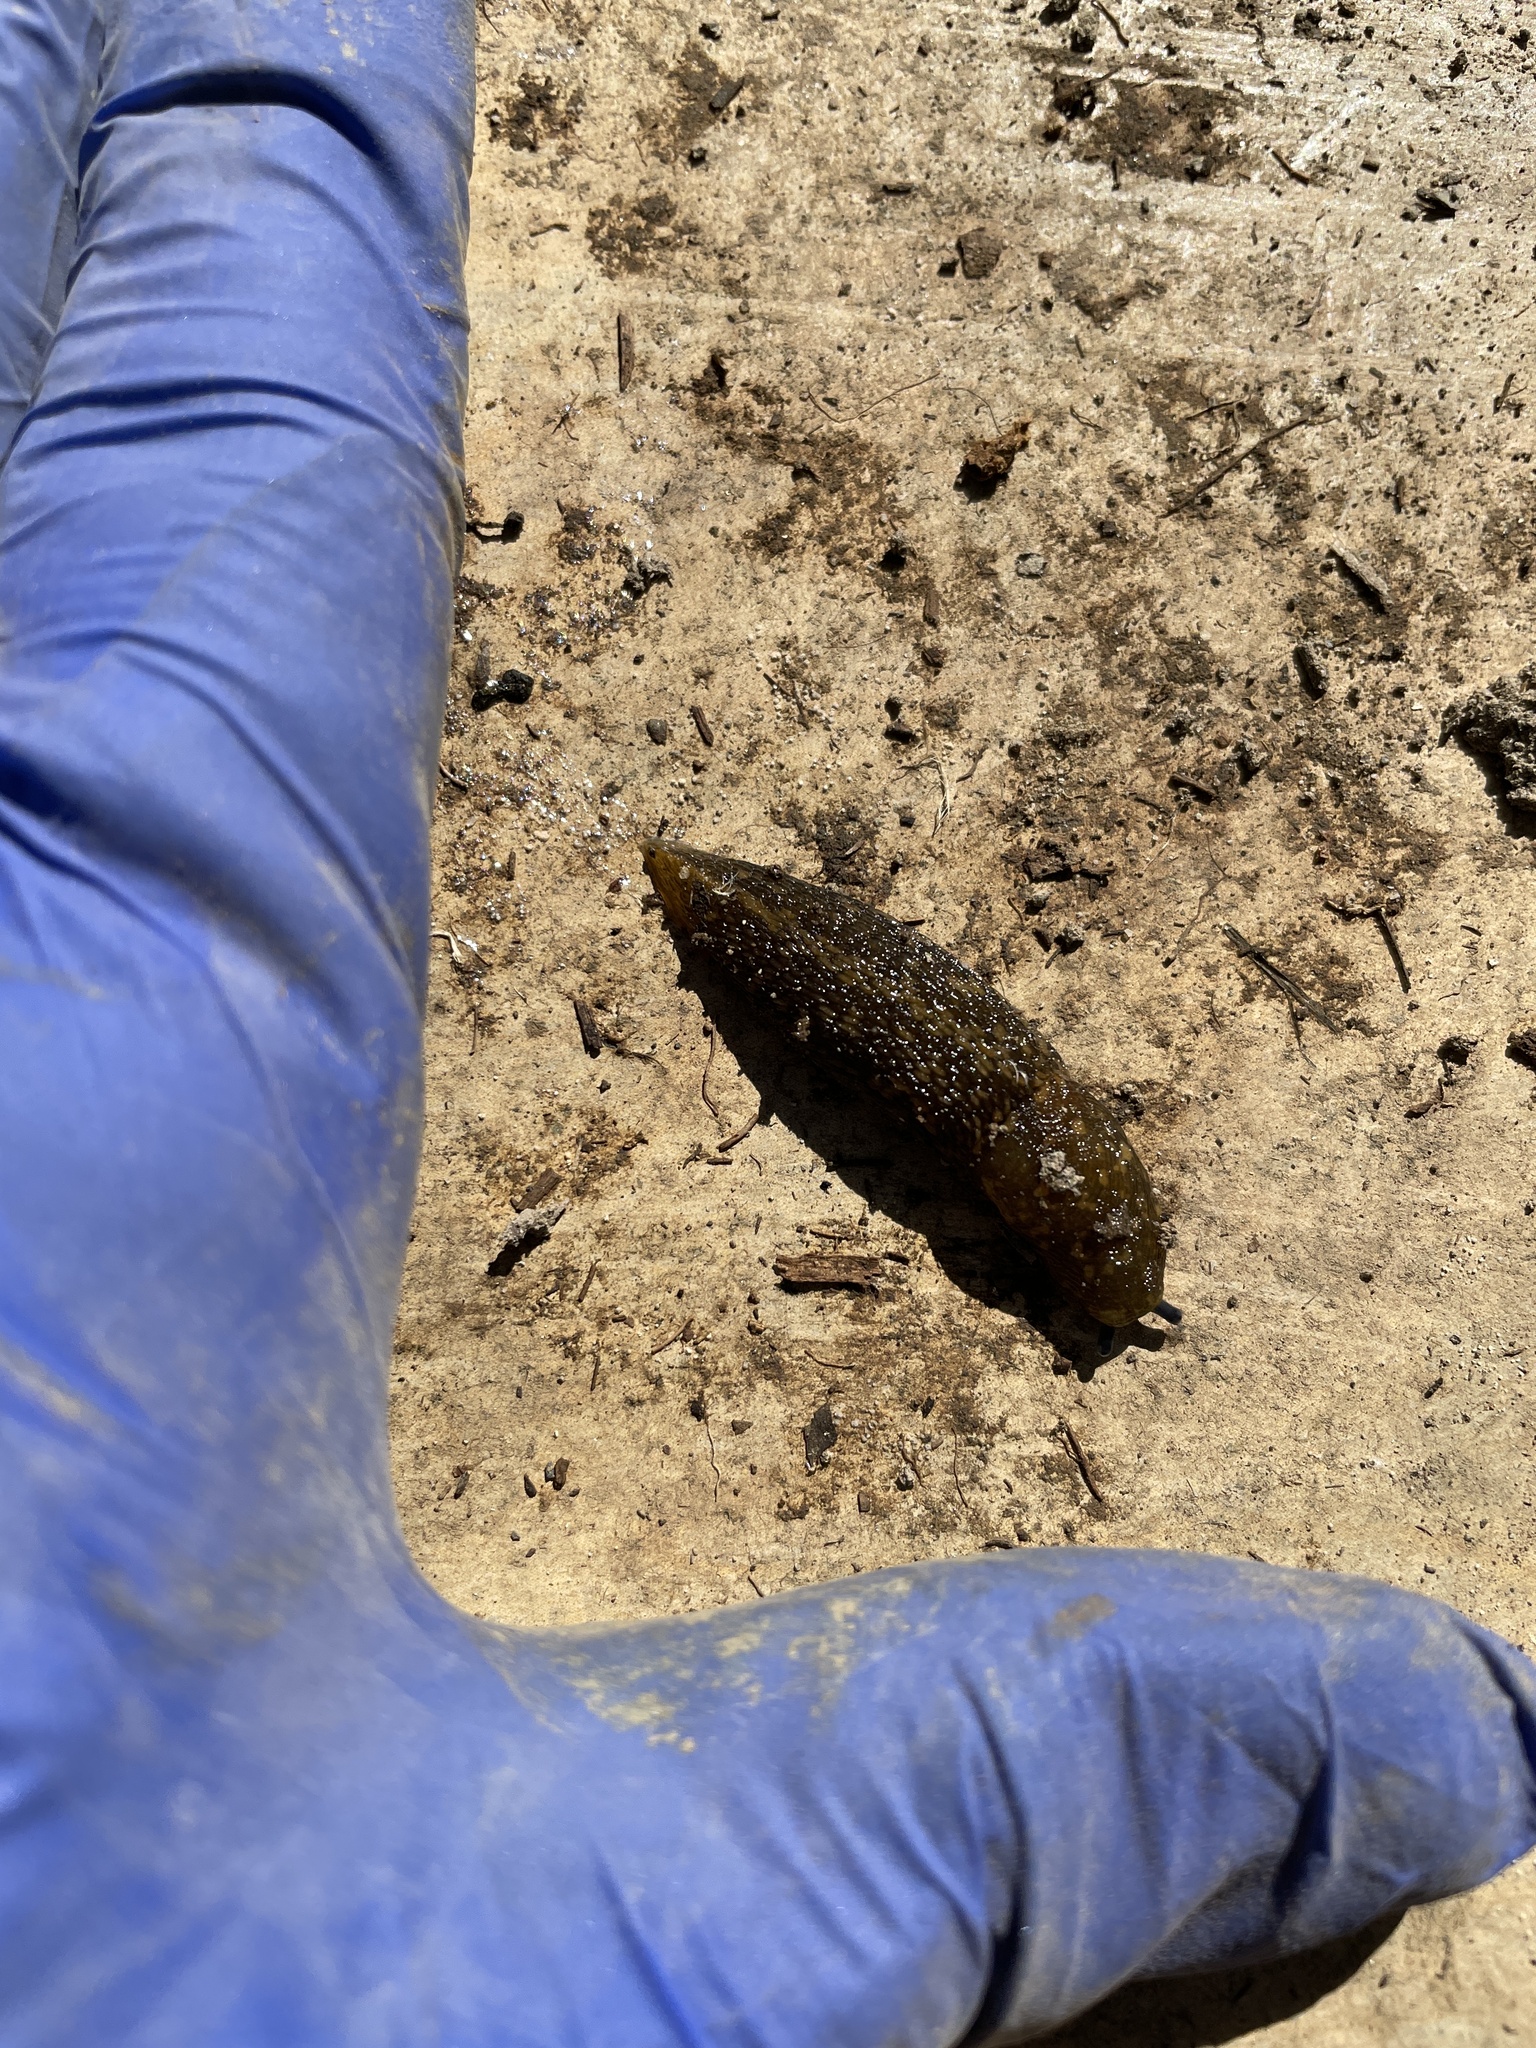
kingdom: Animalia
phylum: Mollusca
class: Gastropoda
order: Stylommatophora
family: Limacidae
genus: Limacus
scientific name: Limacus flavus
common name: Yellow gardenslug
